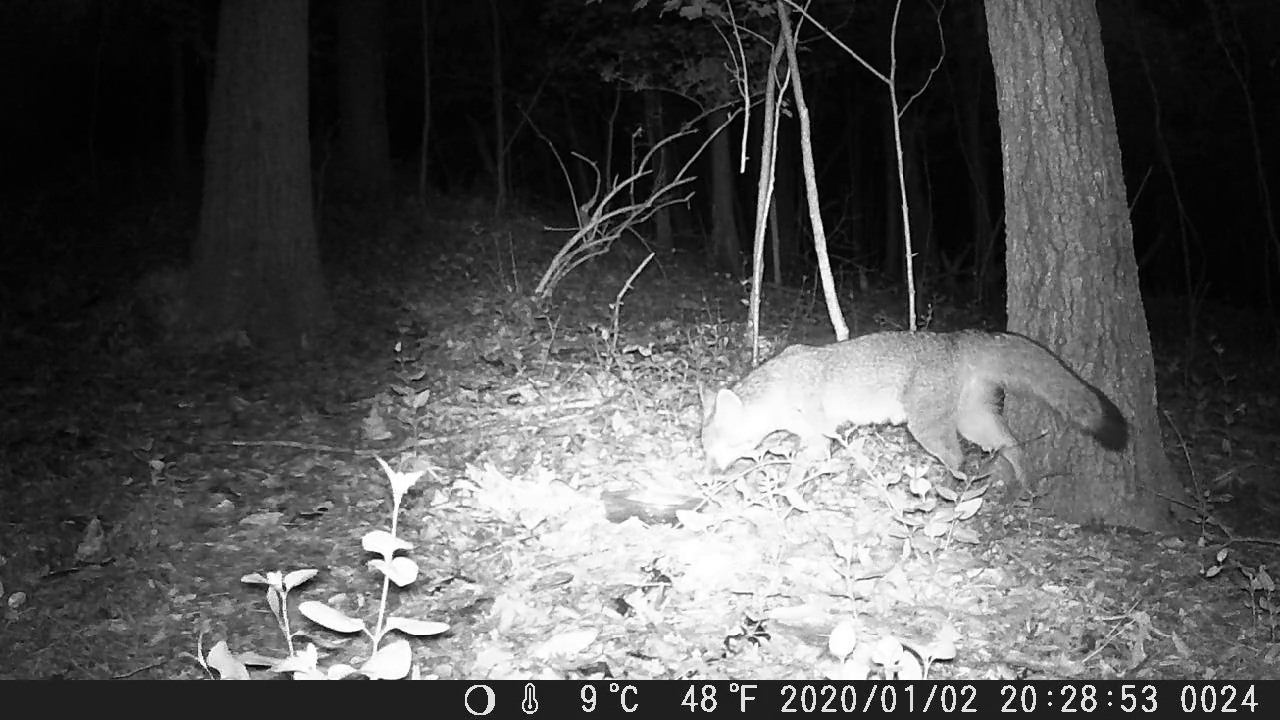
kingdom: Animalia
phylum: Chordata
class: Mammalia
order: Carnivora
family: Canidae
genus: Urocyon
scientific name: Urocyon cinereoargenteus
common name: Gray fox
